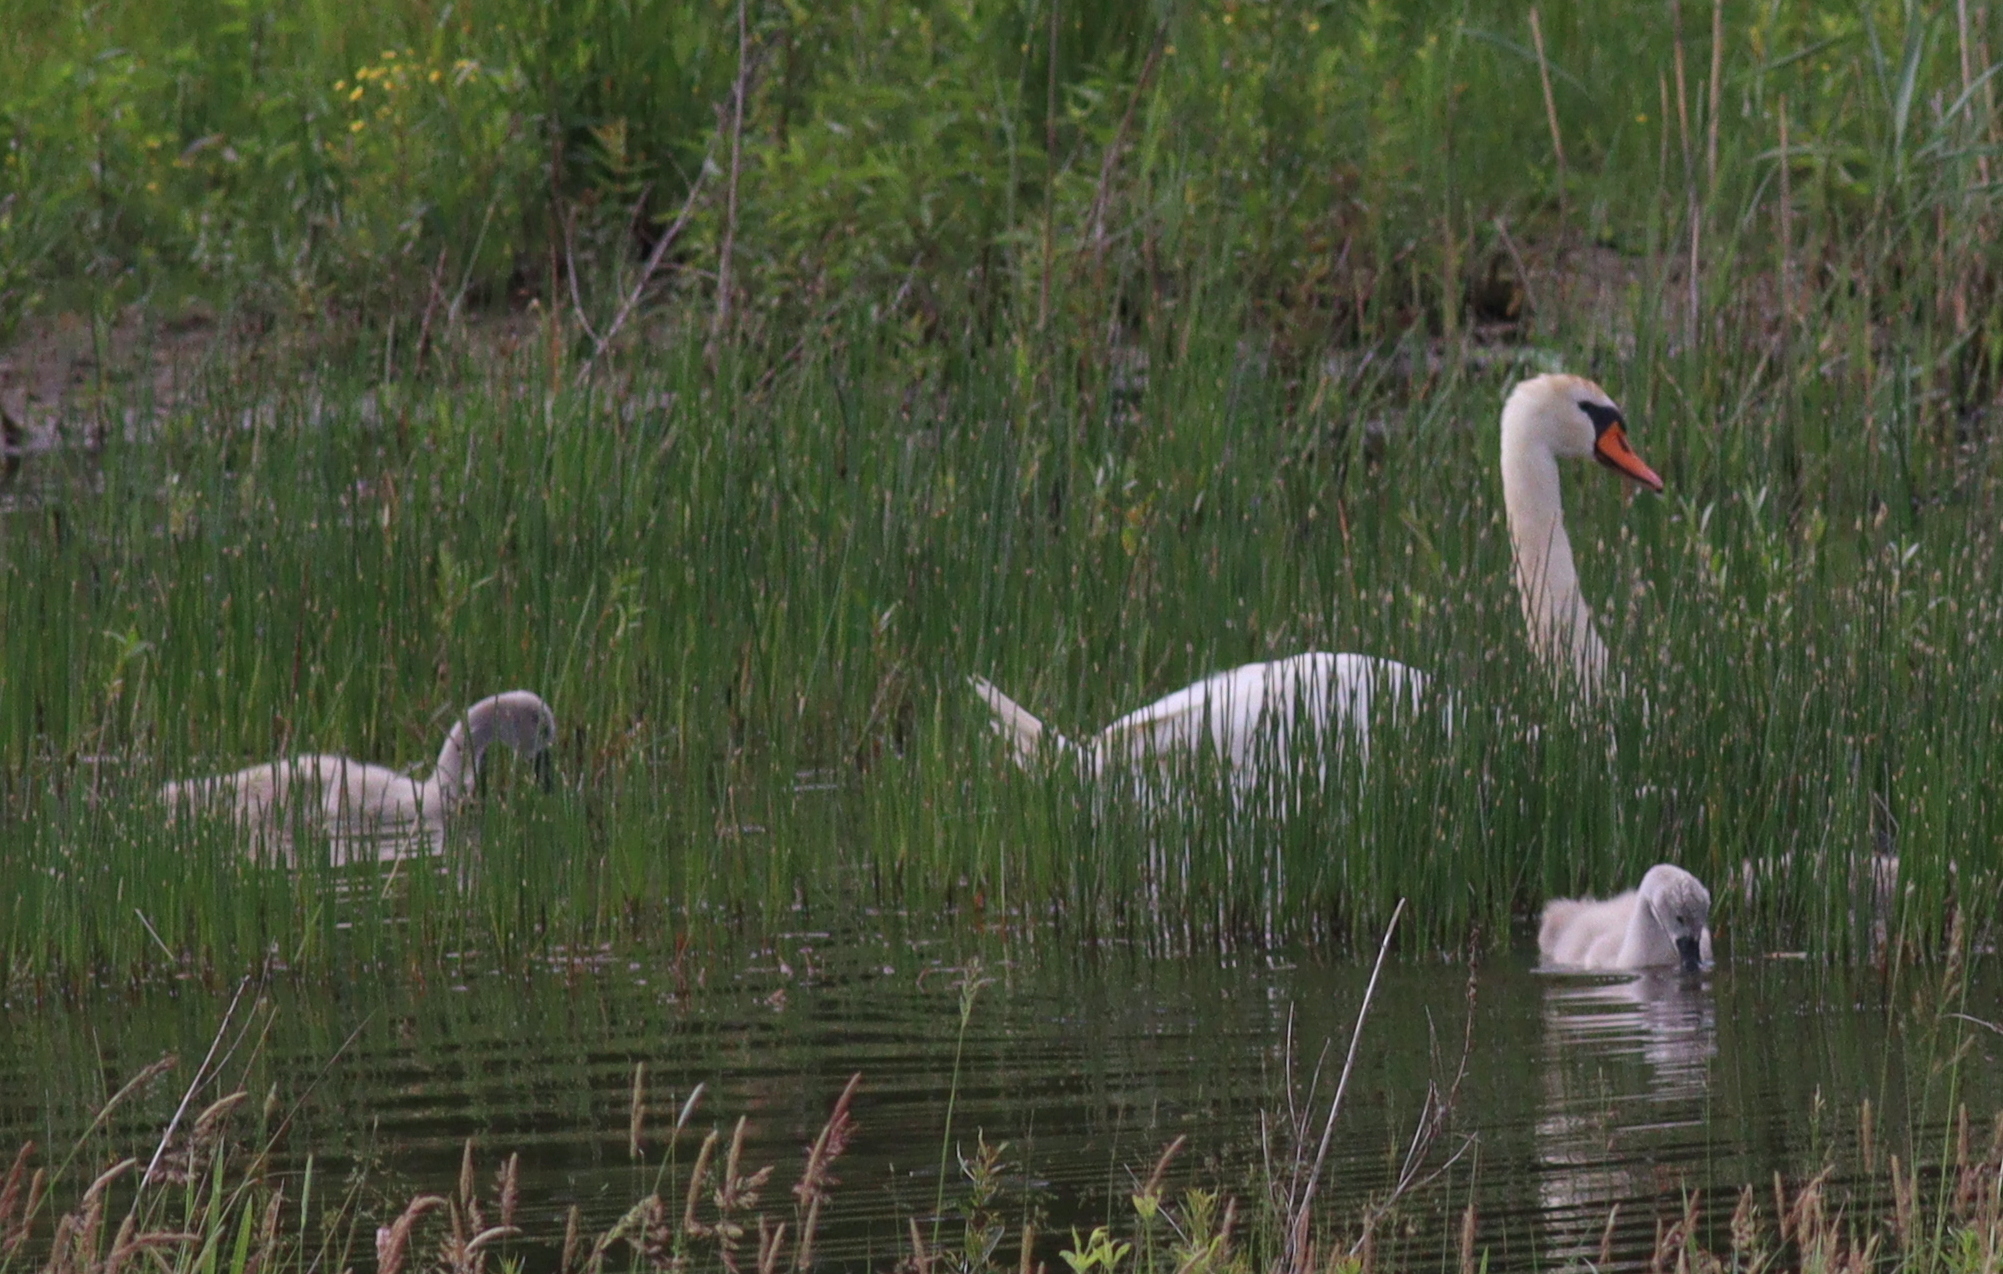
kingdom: Animalia
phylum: Chordata
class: Aves
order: Anseriformes
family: Anatidae
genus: Cygnus
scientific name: Cygnus olor
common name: Mute swan
